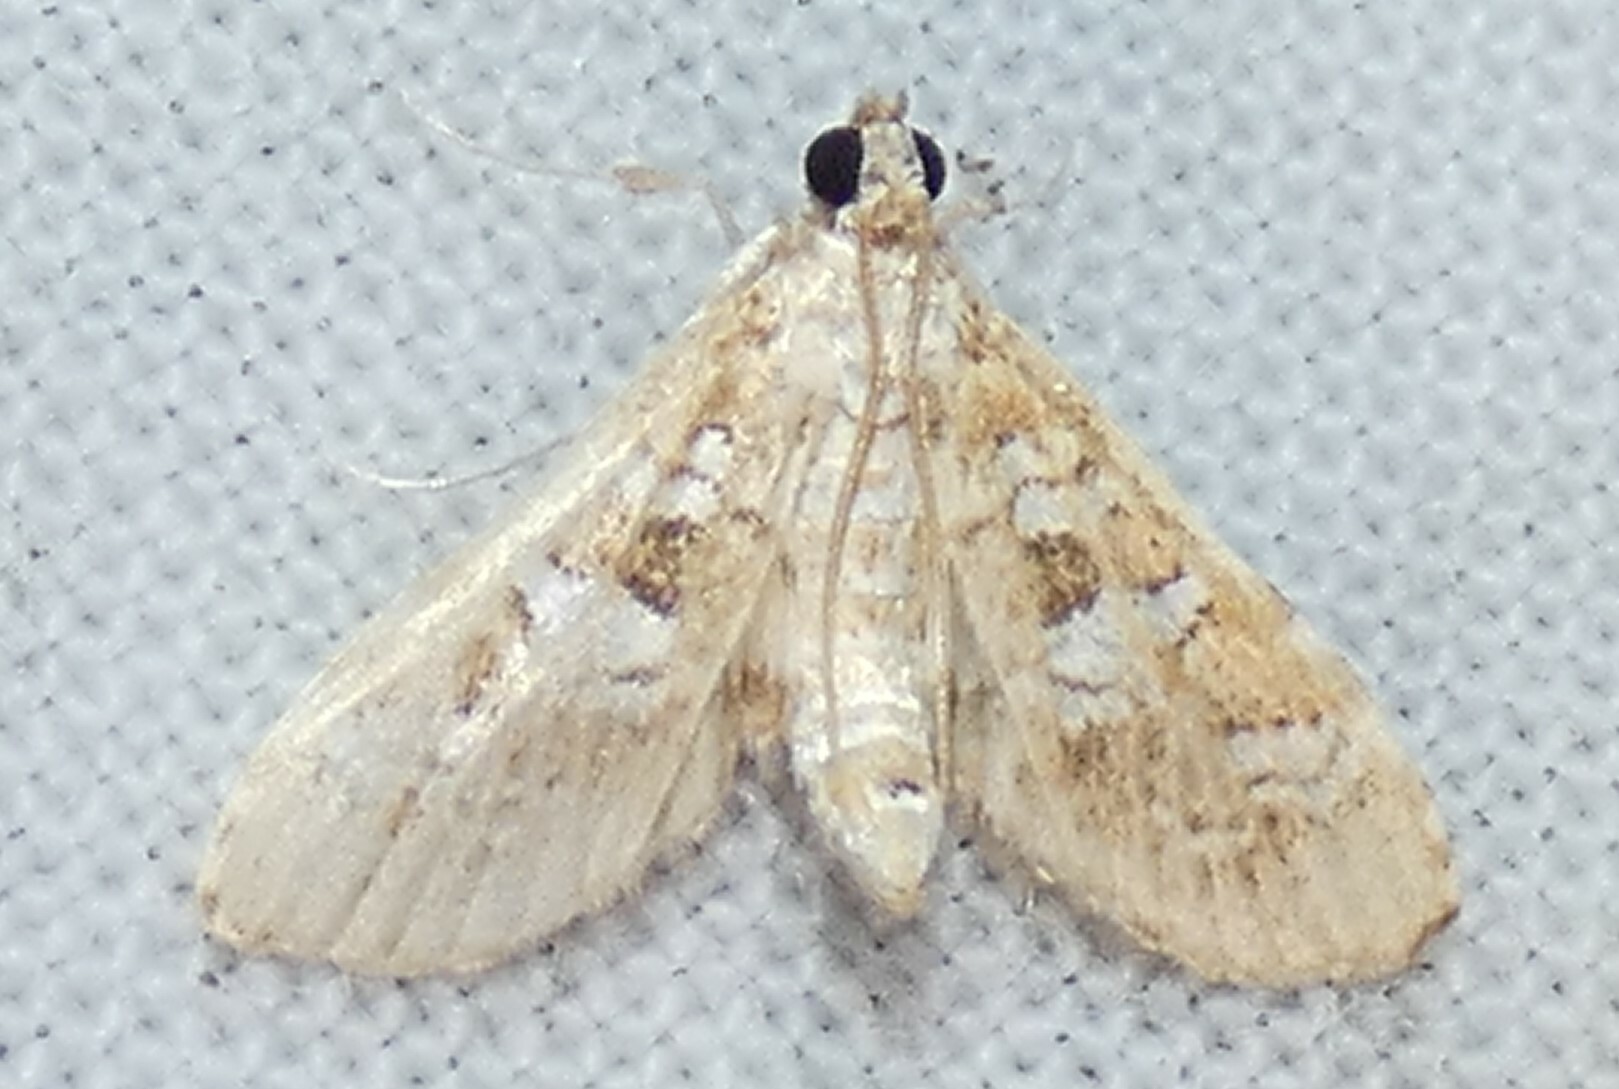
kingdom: Animalia
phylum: Arthropoda
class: Insecta
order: Lepidoptera
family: Crambidae
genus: Samea
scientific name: Samea multiplicalis
